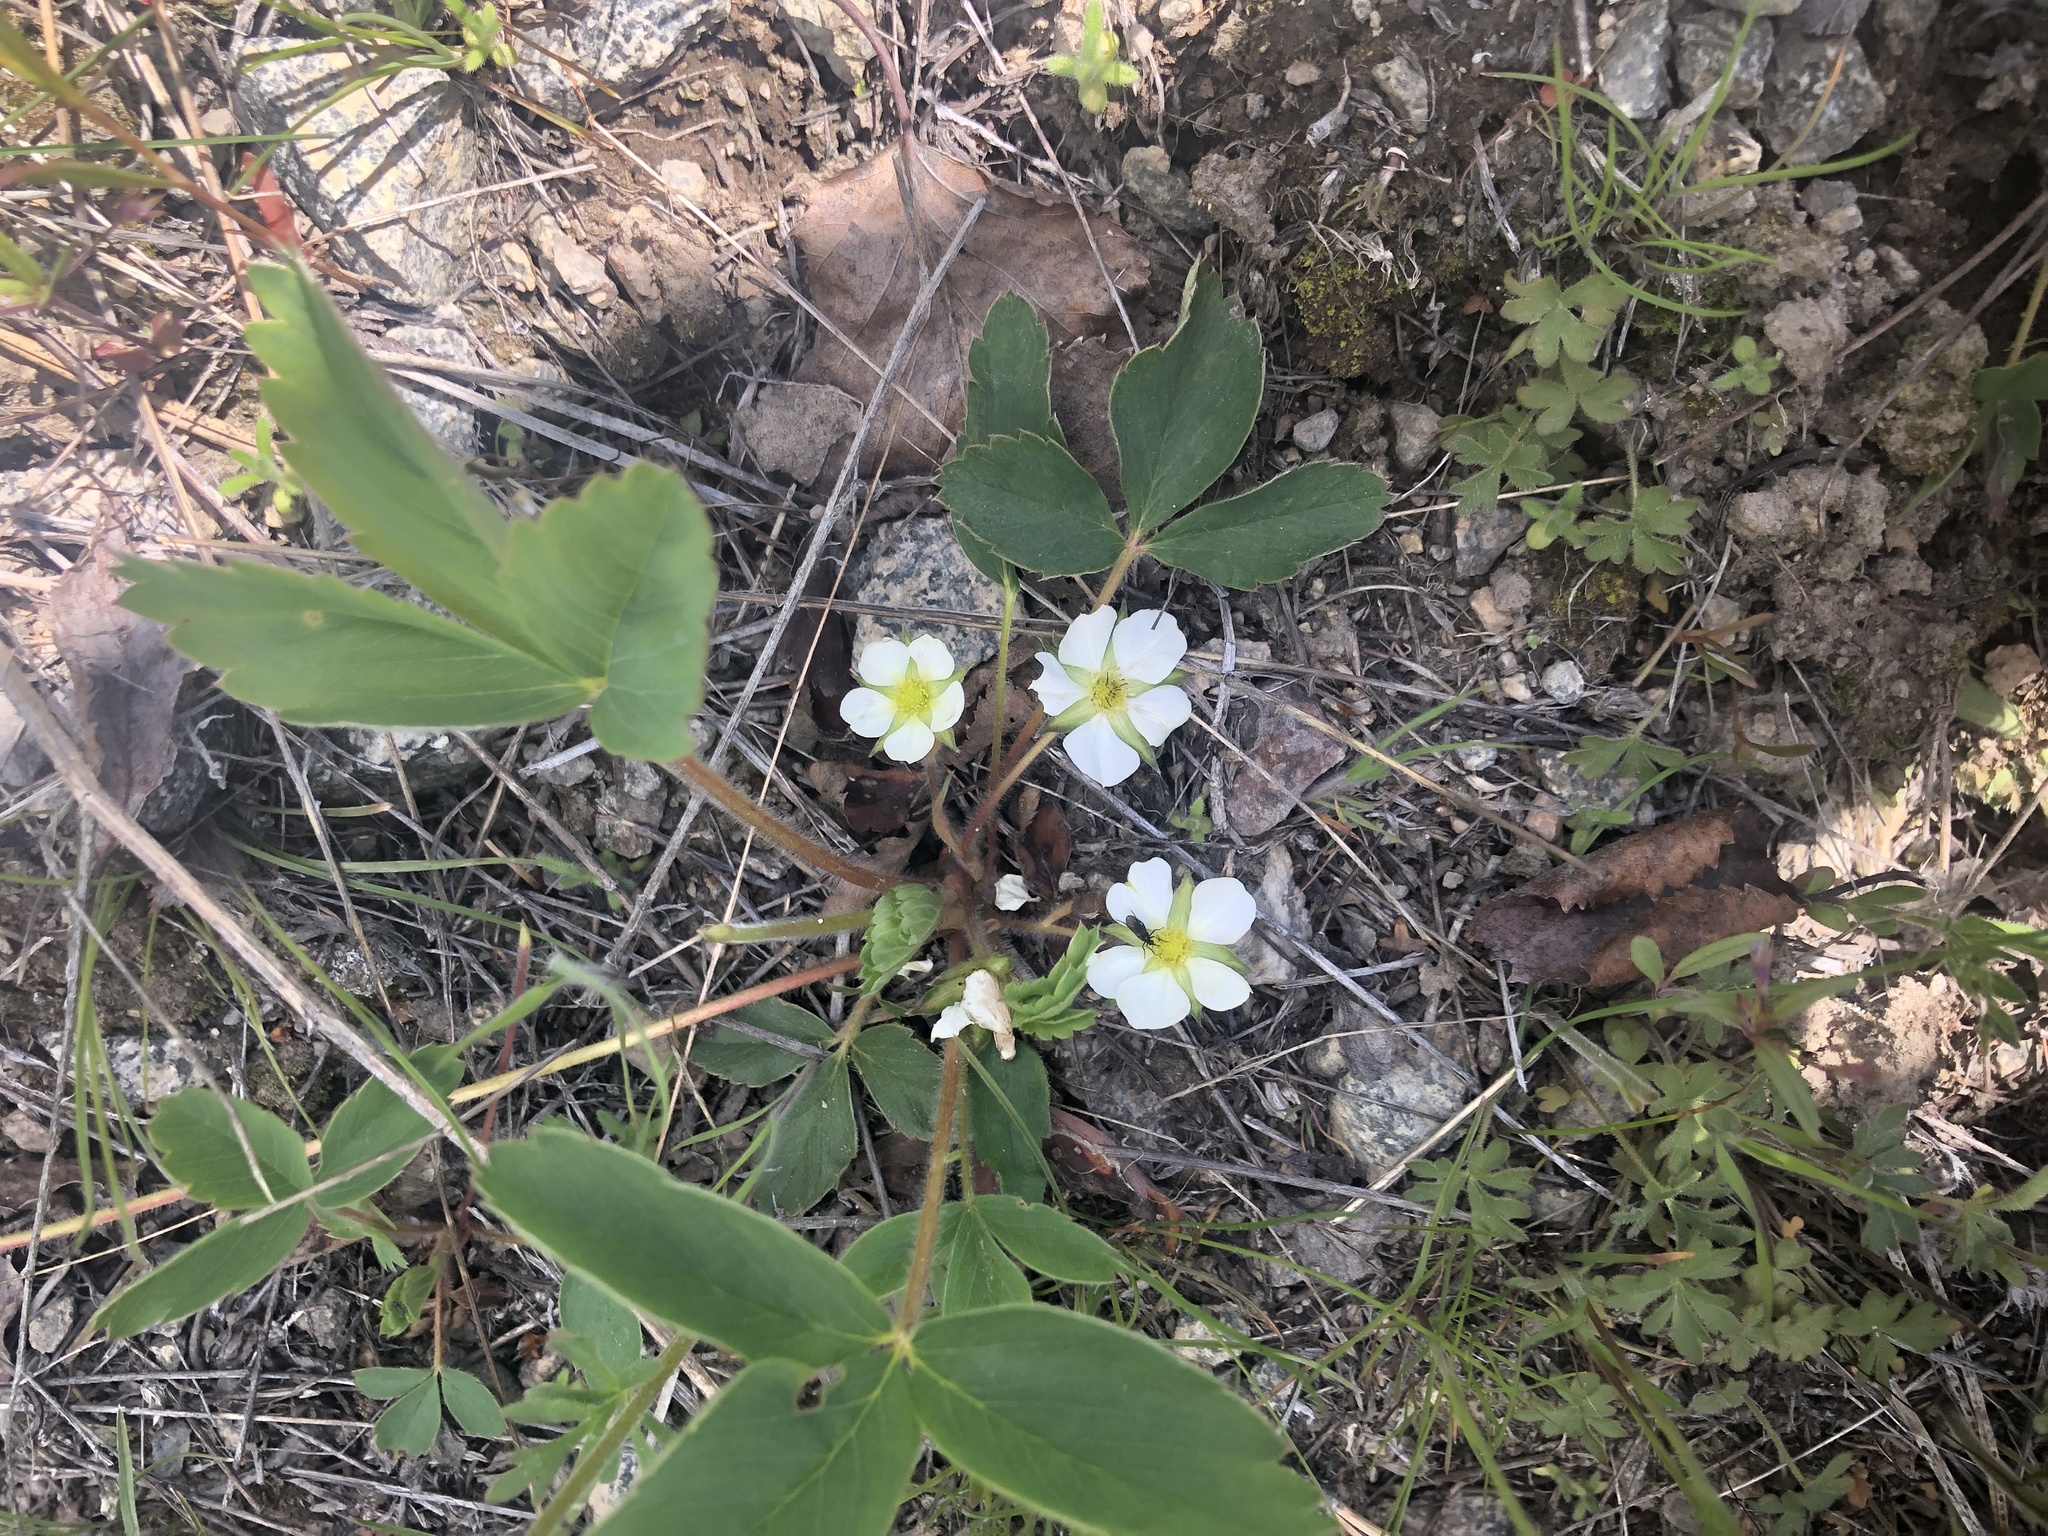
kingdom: Plantae
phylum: Tracheophyta
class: Magnoliopsida
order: Rosales
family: Rosaceae
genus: Fragaria
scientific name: Fragaria virginiana
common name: Thickleaved wild strawberry
